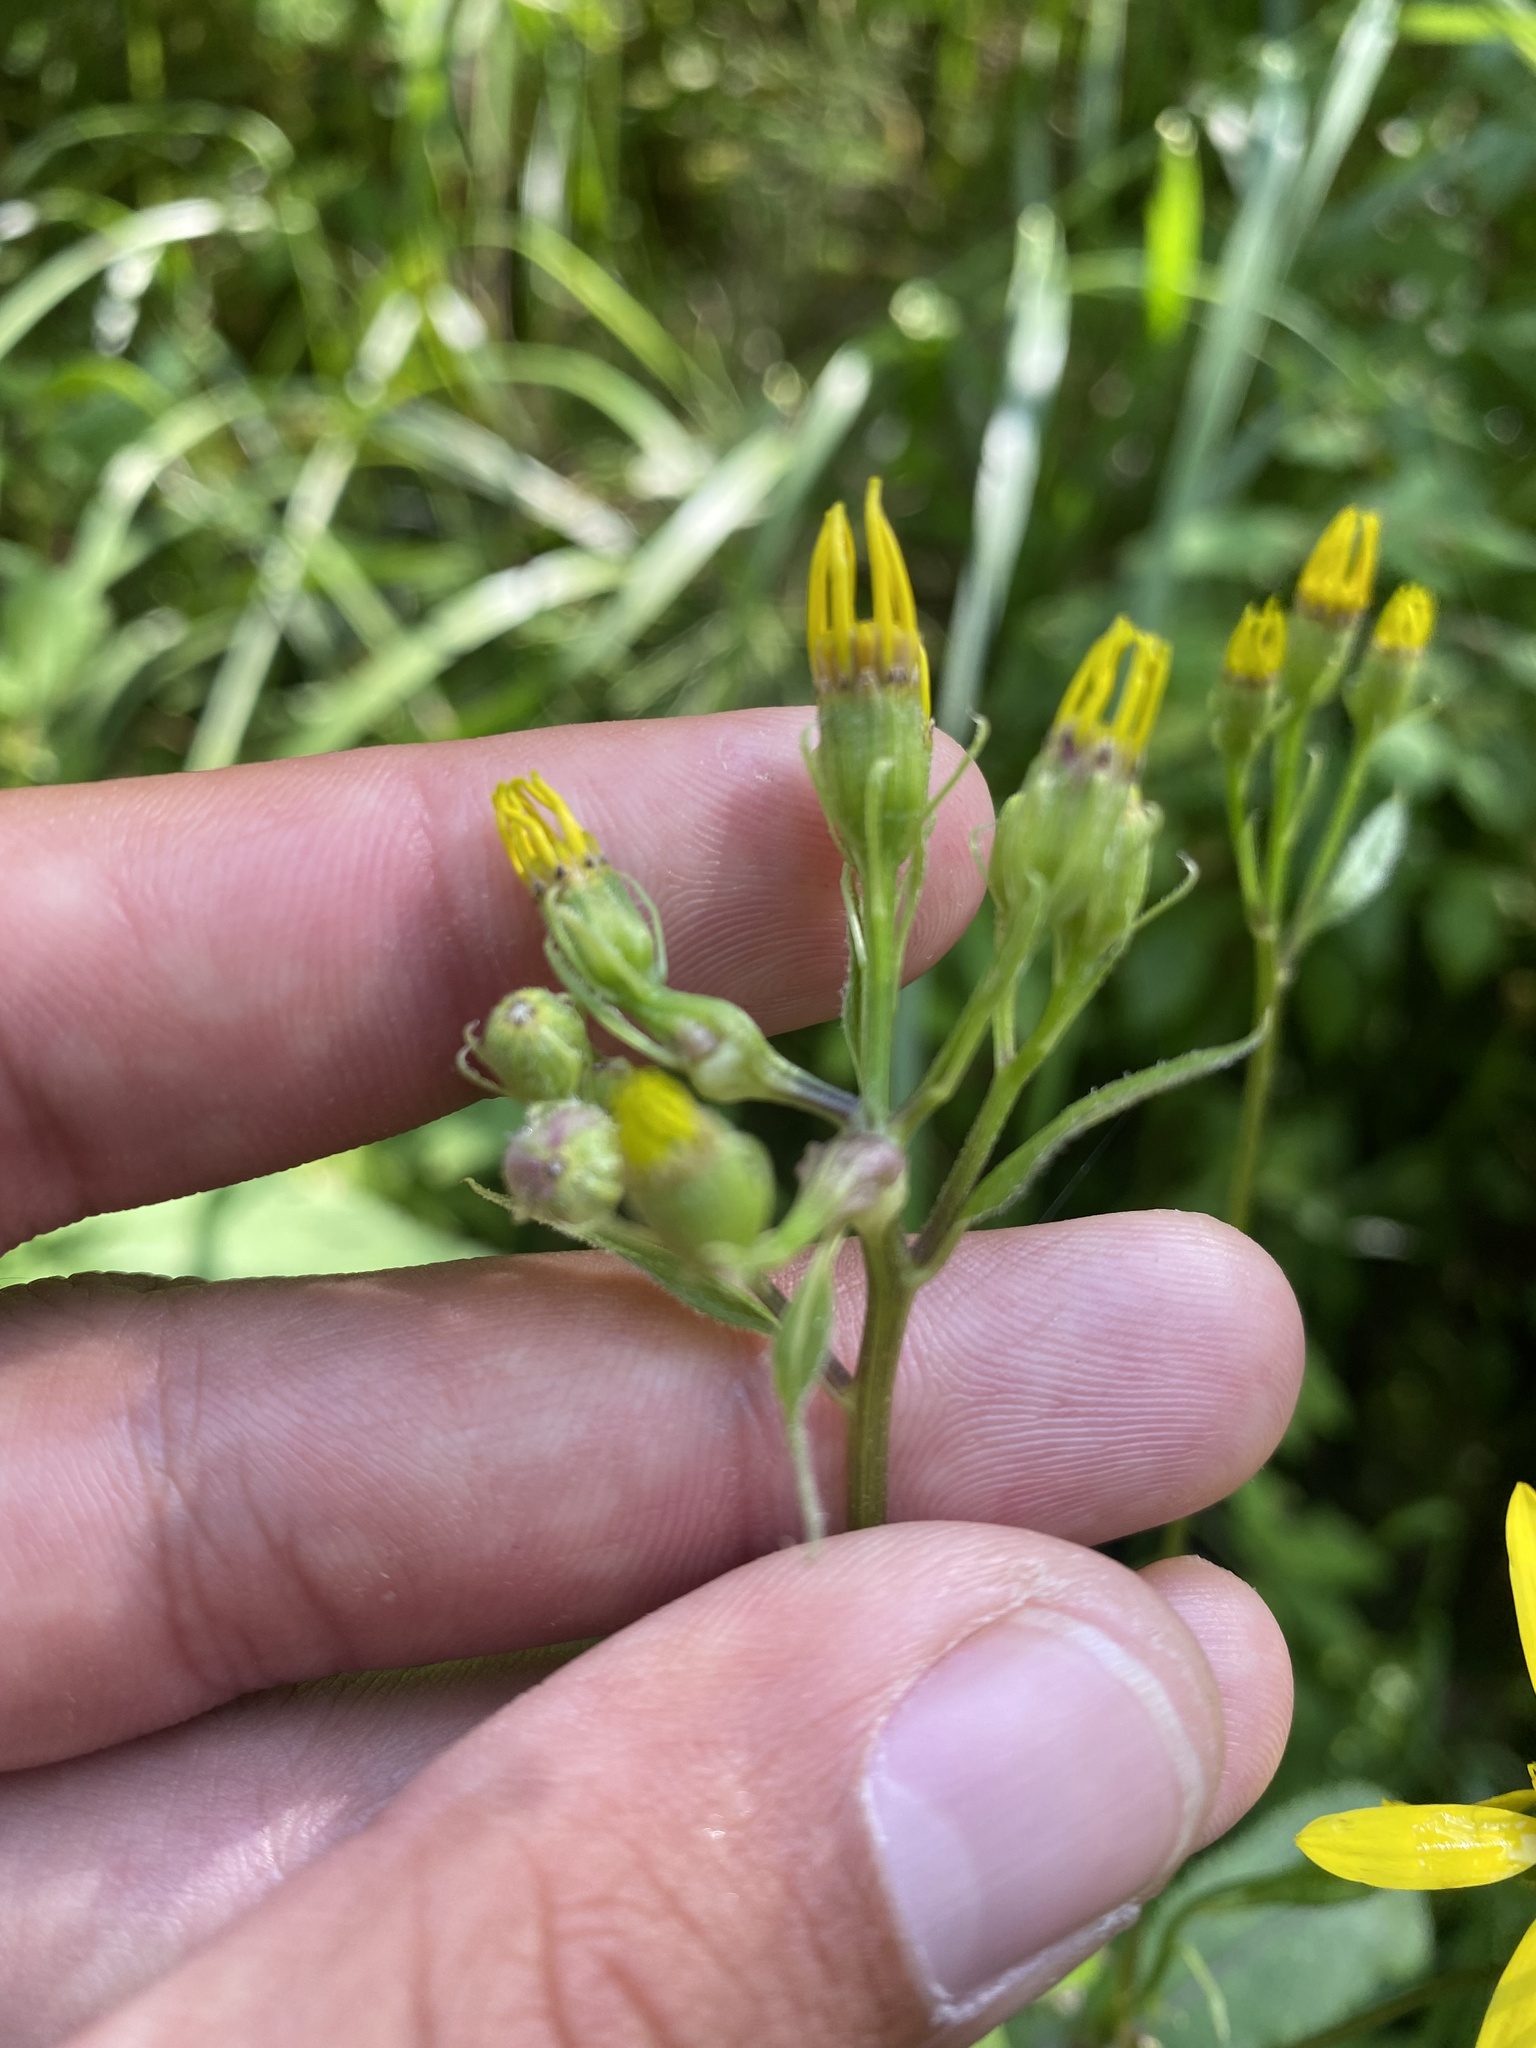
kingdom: Plantae
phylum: Tracheophyta
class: Magnoliopsida
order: Asterales
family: Asteraceae
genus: Senecio
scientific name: Senecio nemorensis
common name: Alpine ragwort
